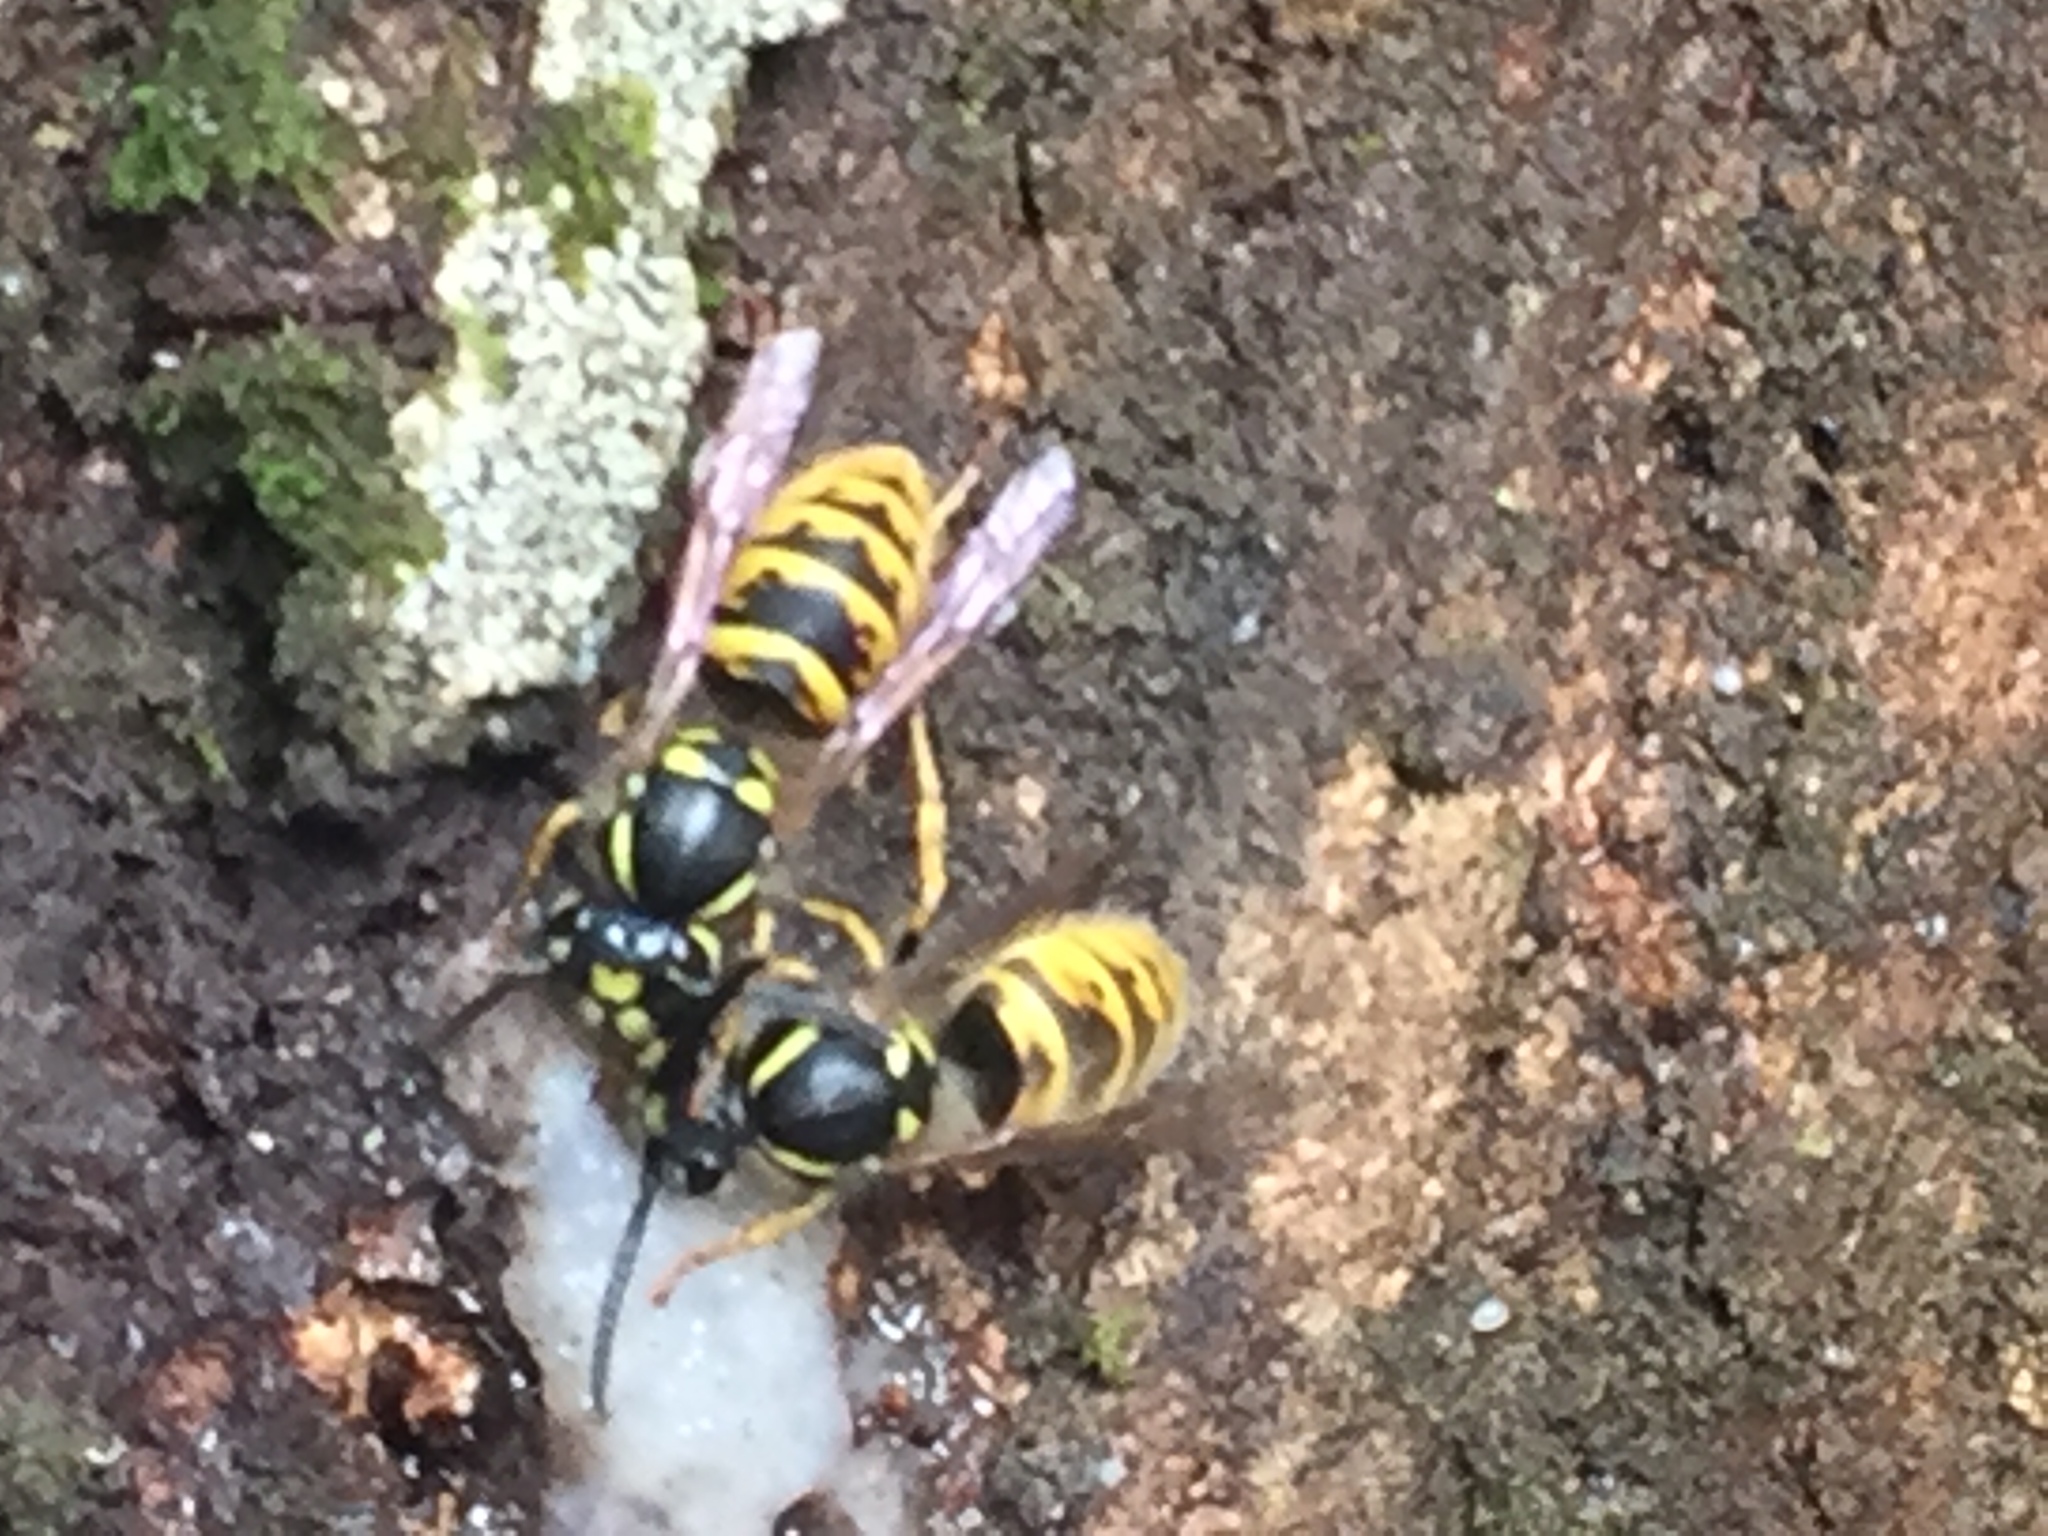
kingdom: Animalia
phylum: Arthropoda
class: Insecta
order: Hymenoptera
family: Vespidae
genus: Vespula
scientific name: Vespula vulgaris
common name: Common wasp
